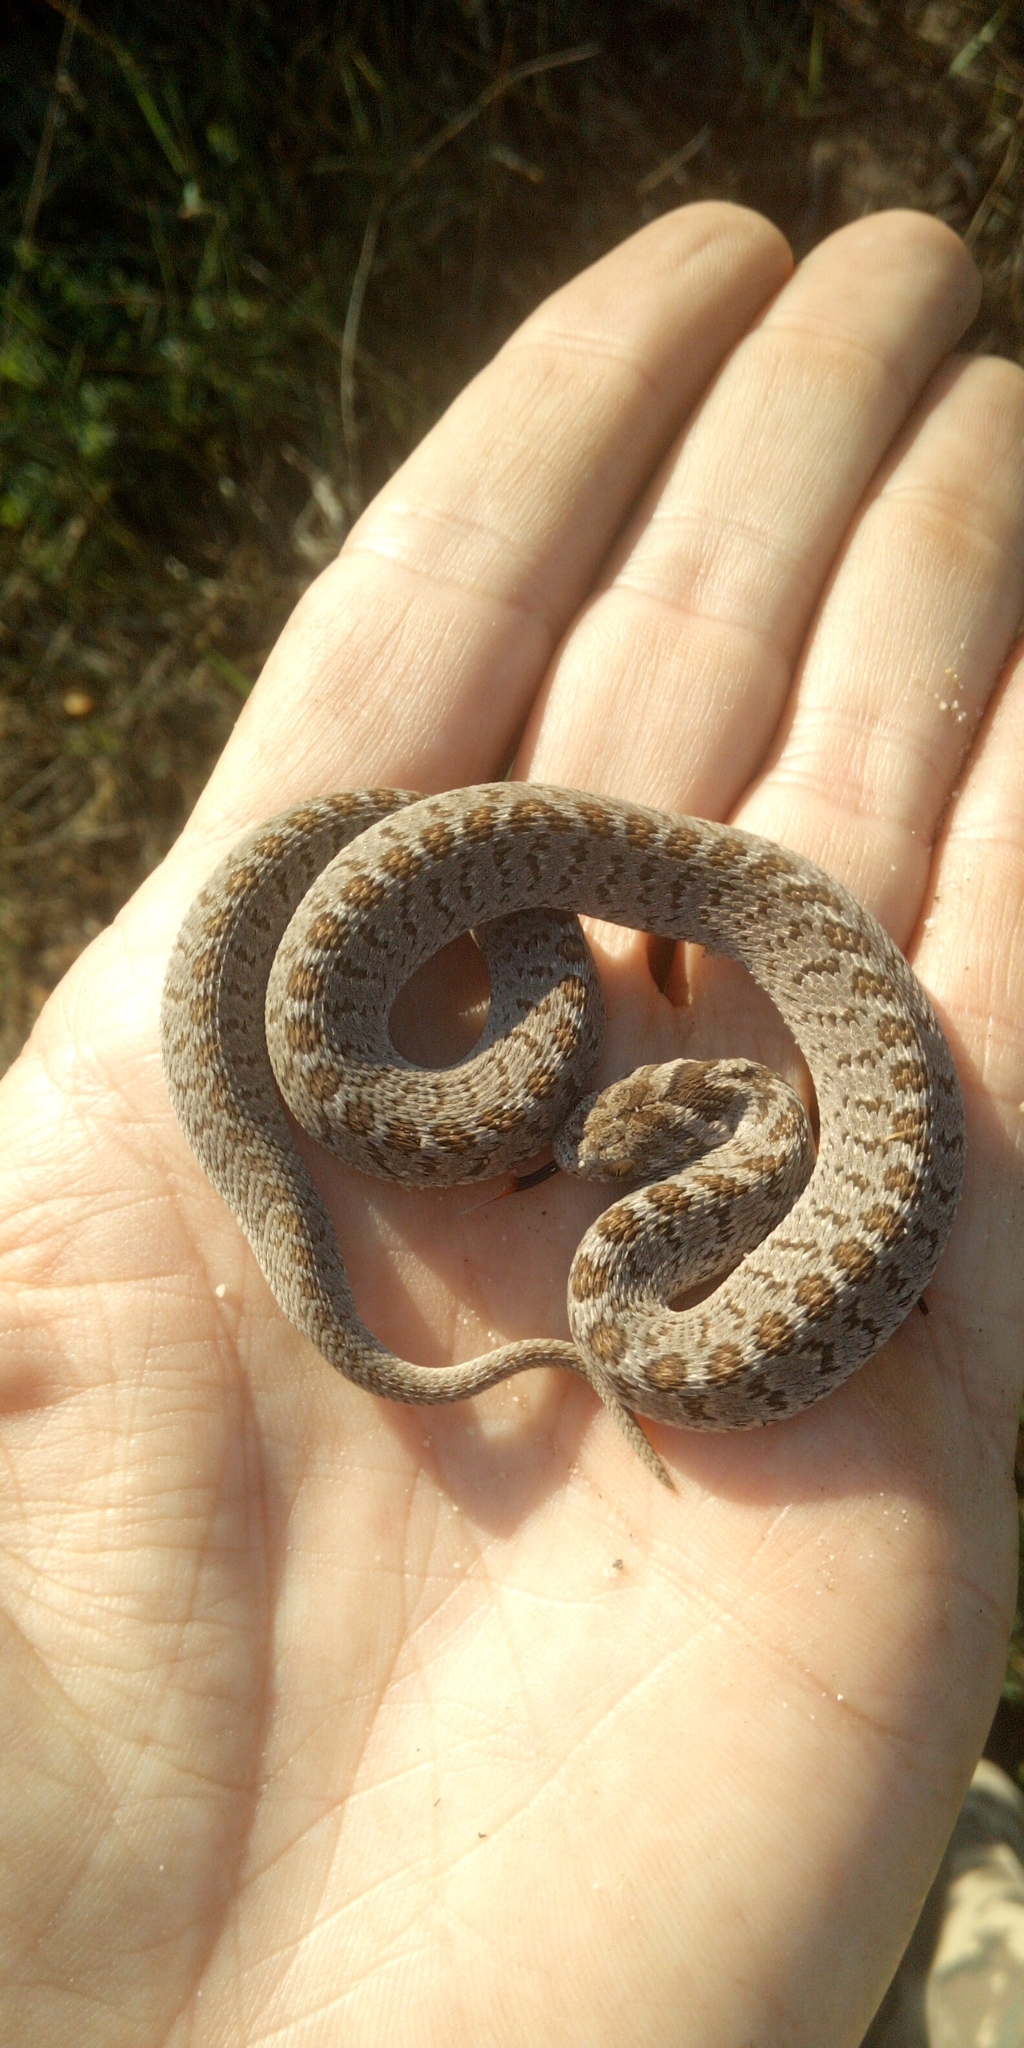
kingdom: Animalia
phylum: Chordata
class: Squamata
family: Colubridae
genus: Dasypeltis
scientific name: Dasypeltis scabra
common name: Common egg eater
